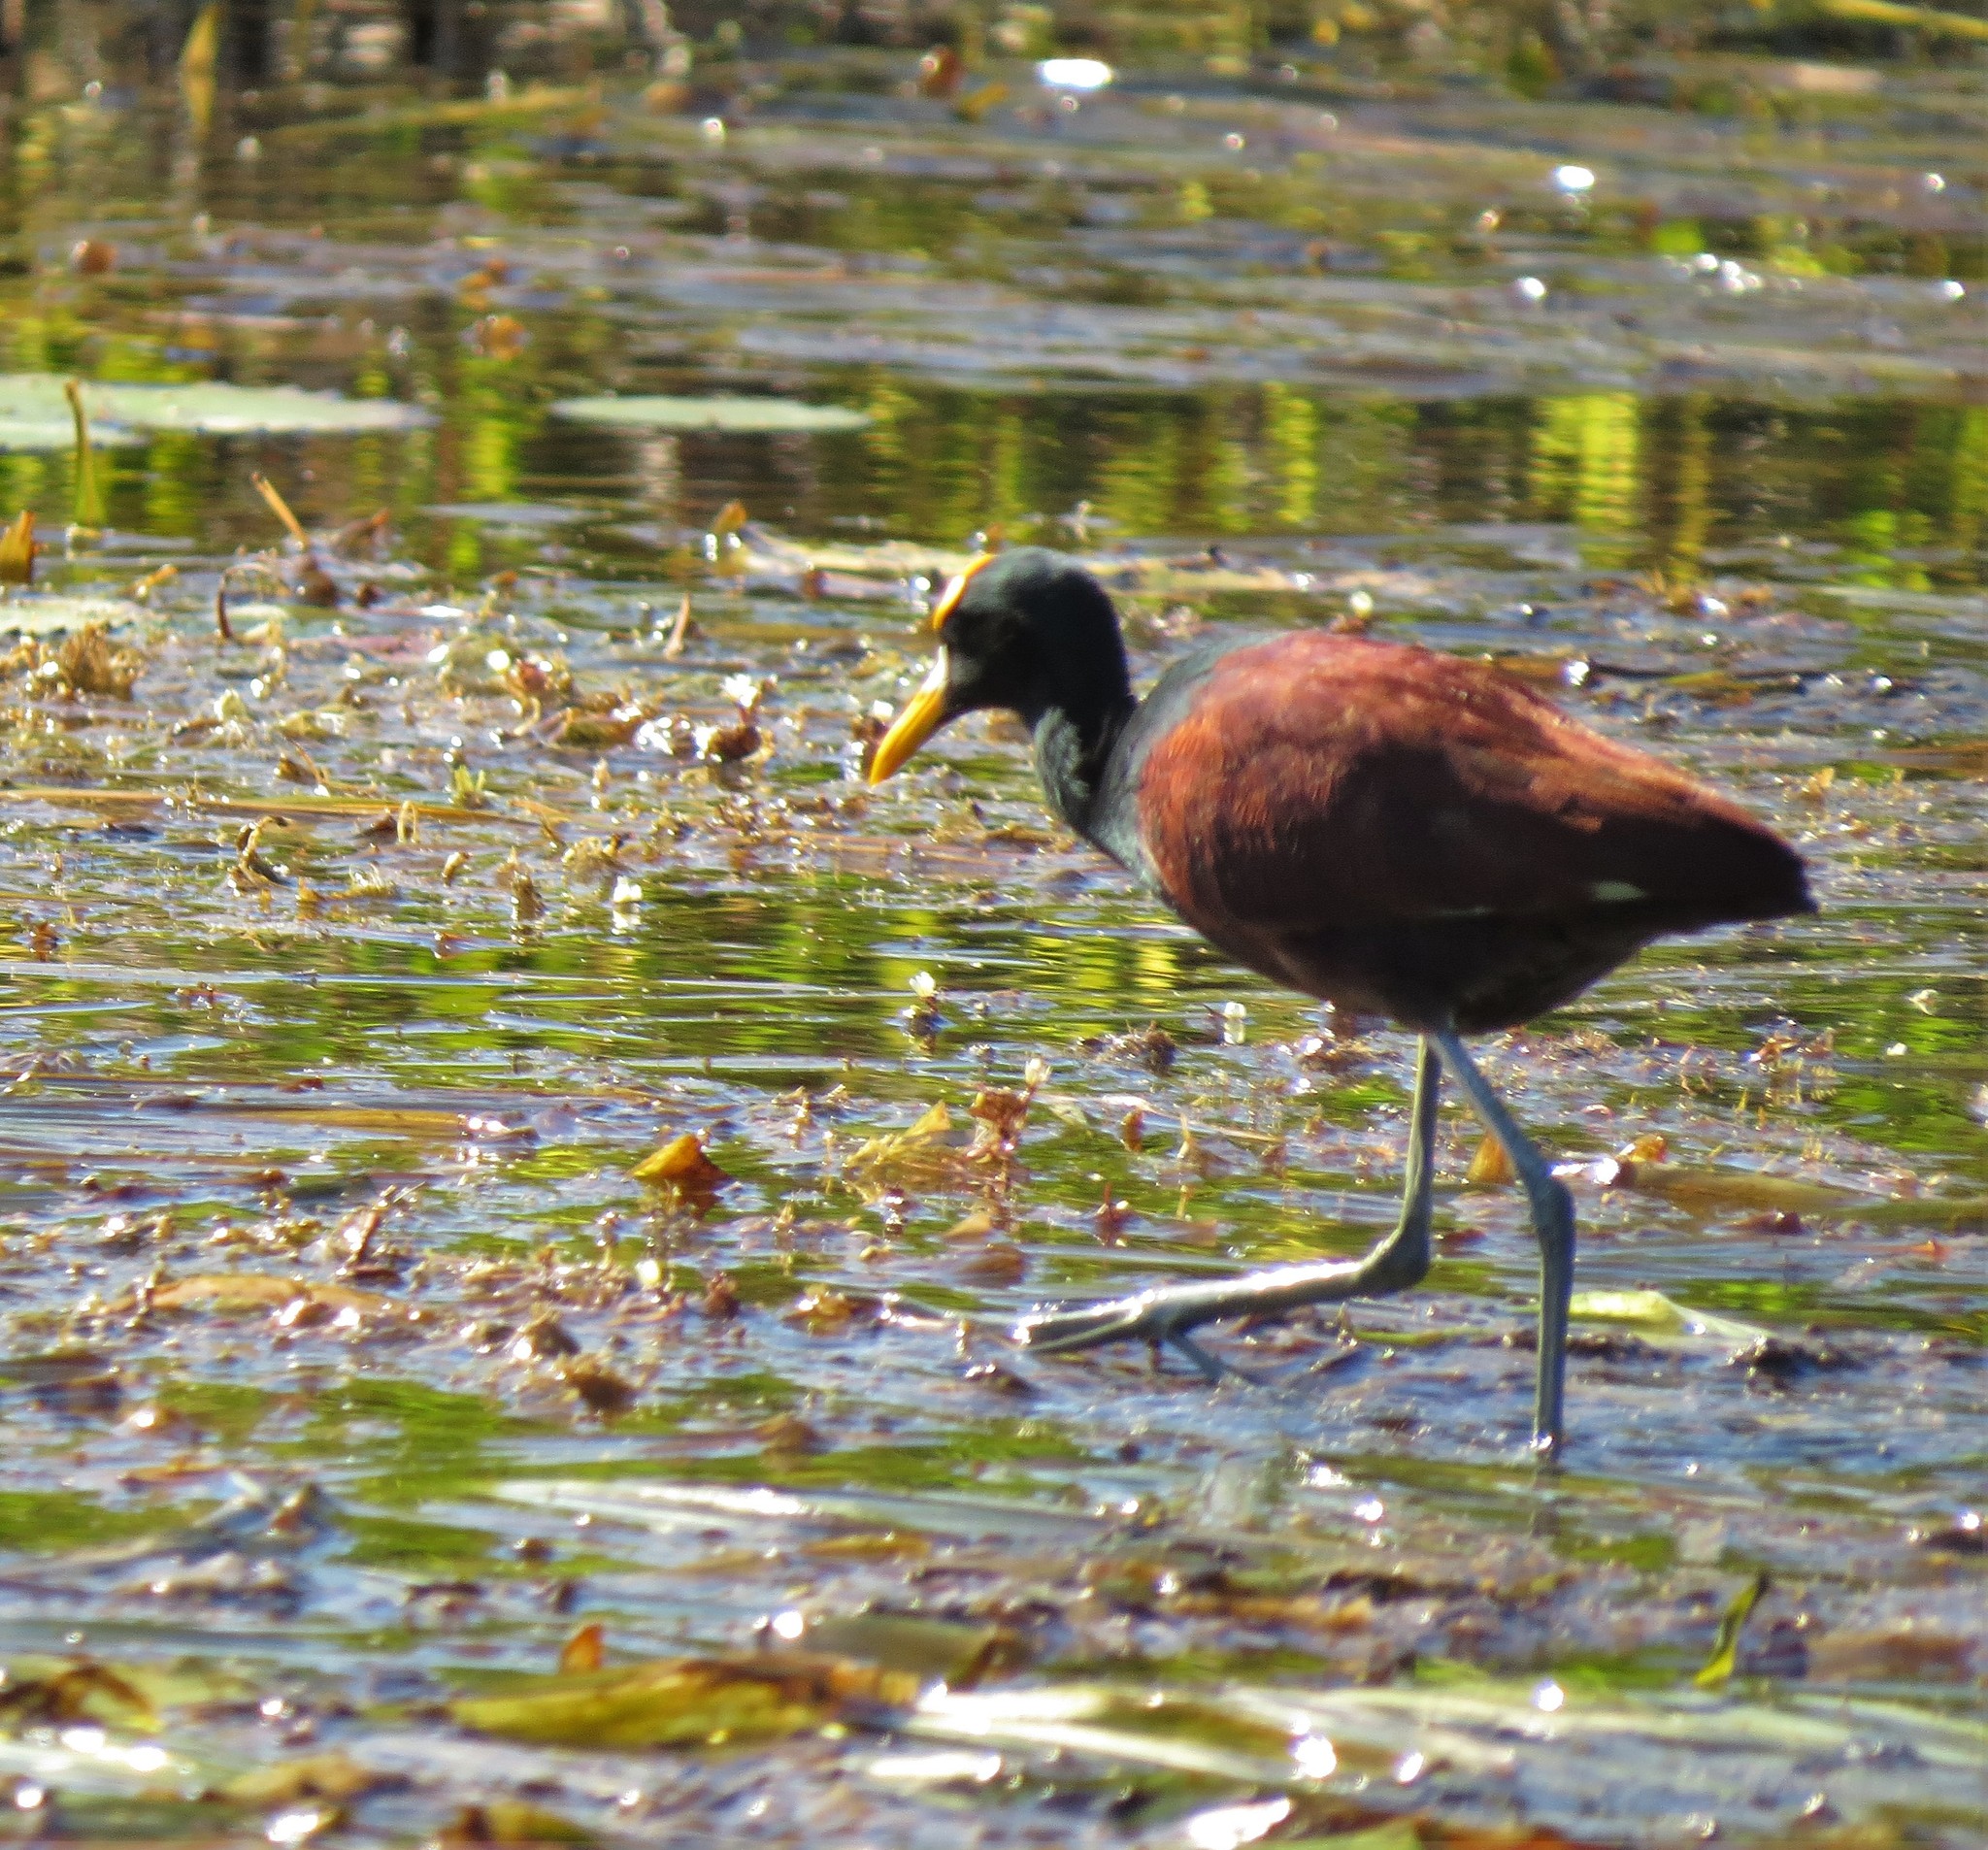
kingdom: Animalia
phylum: Chordata
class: Aves
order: Charadriiformes
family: Jacanidae
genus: Jacana
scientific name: Jacana spinosa
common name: Northern jacana
